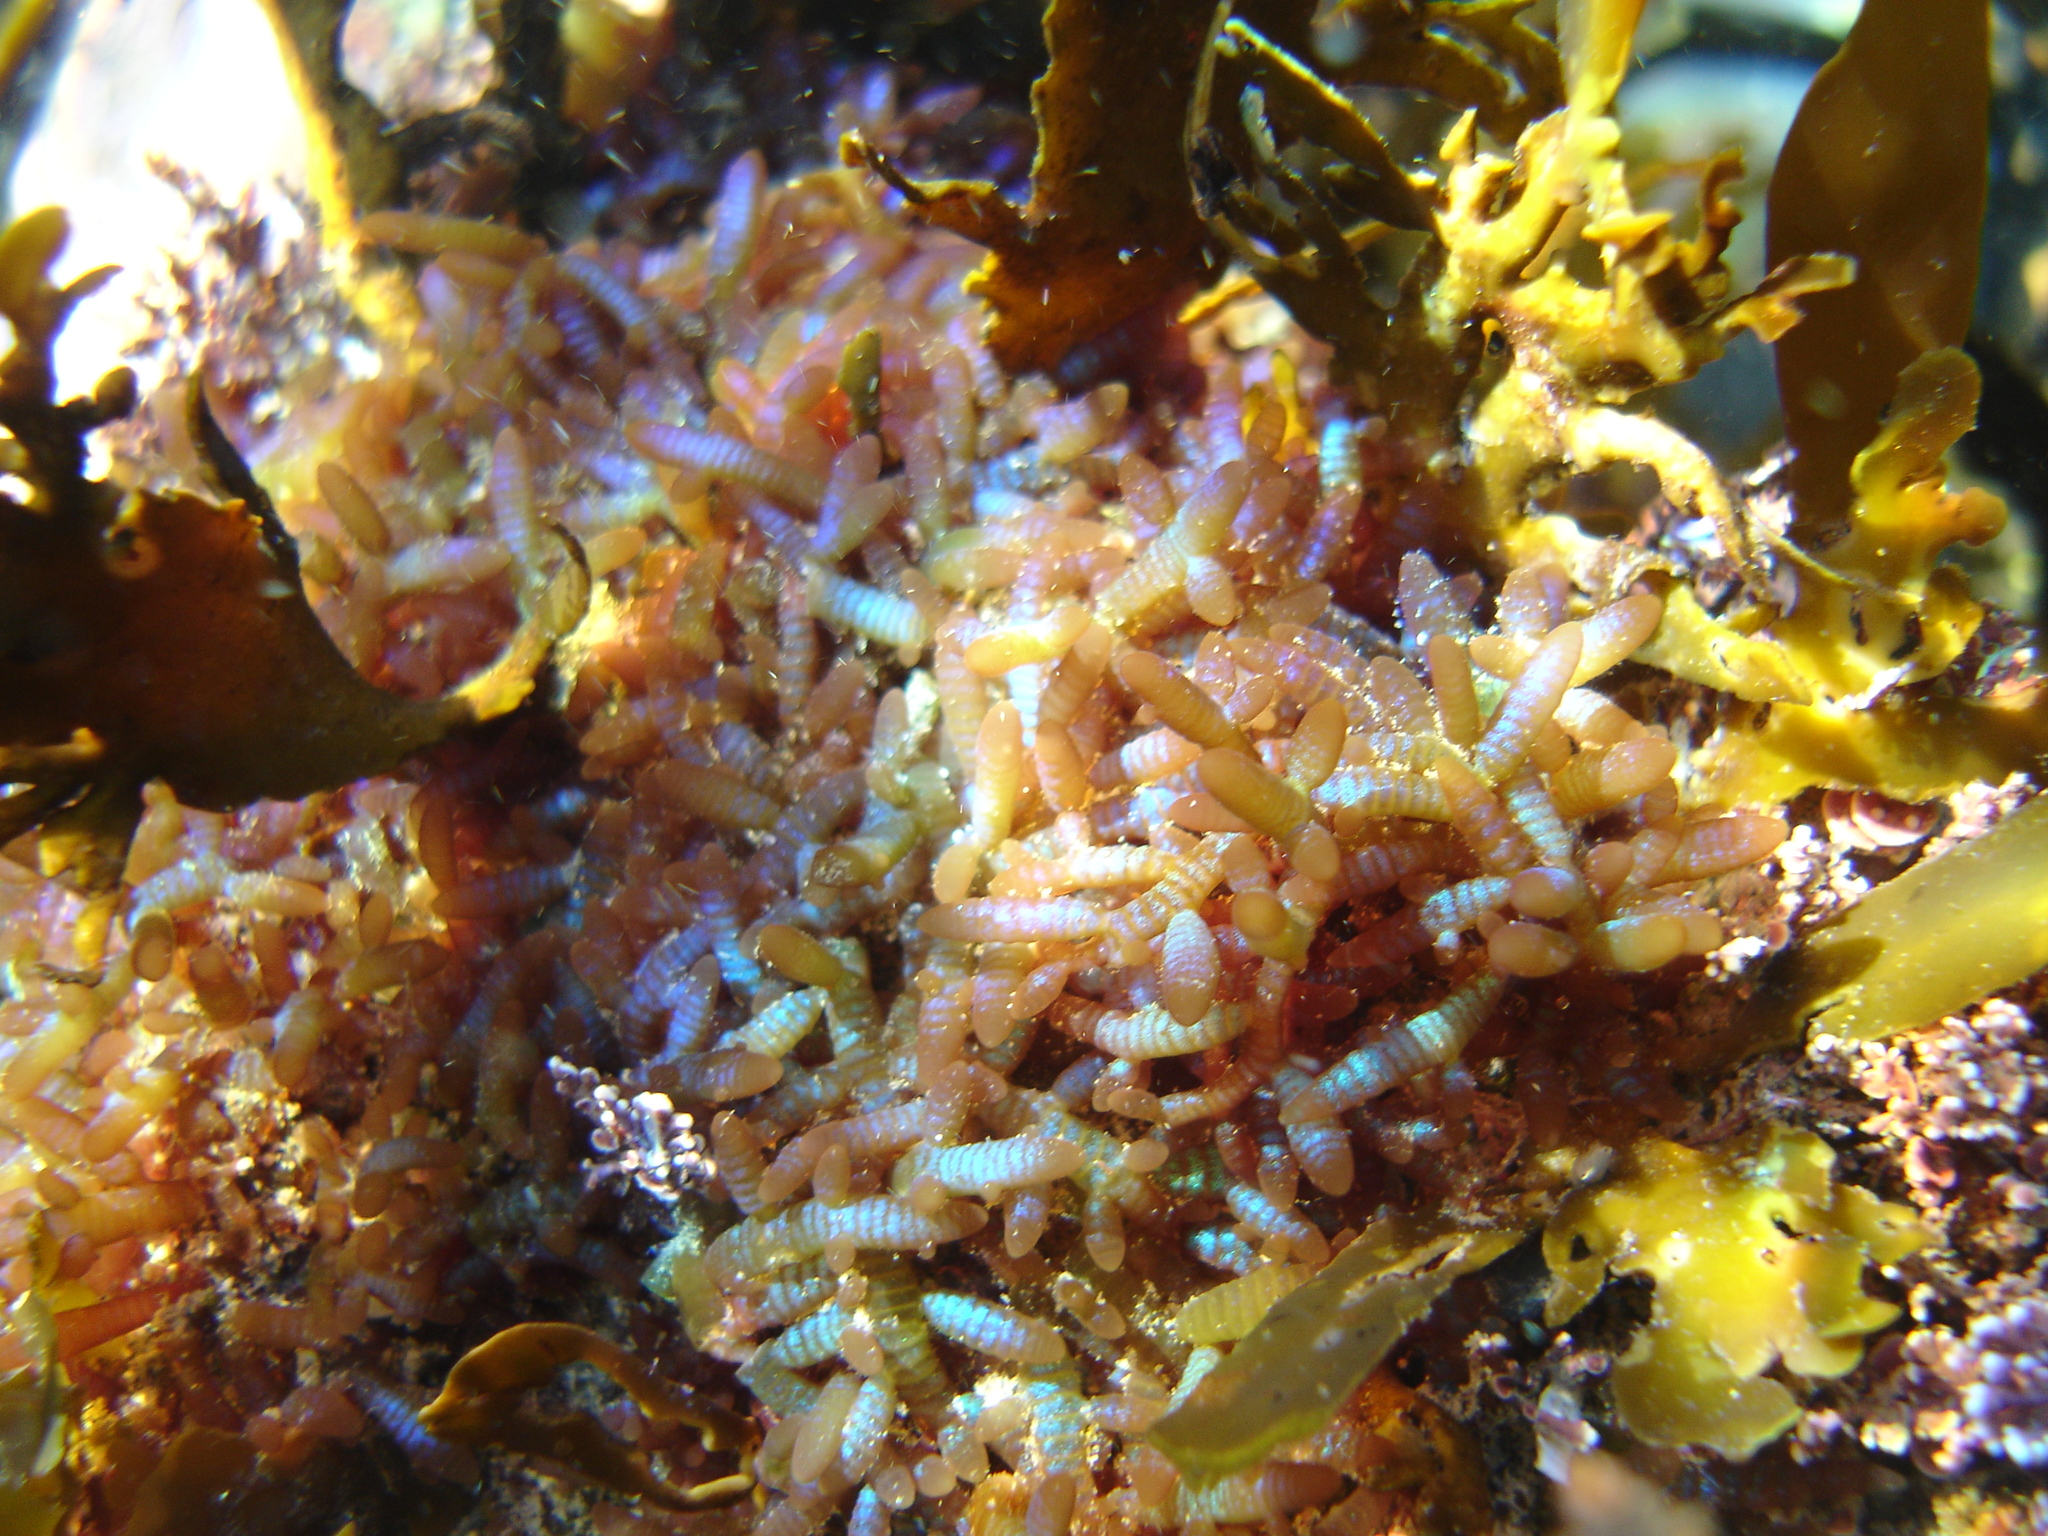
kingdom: Plantae
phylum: Rhodophyta
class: Florideophyceae
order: Rhodymeniales
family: Champiaceae
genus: Champia
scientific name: Champia laingii
